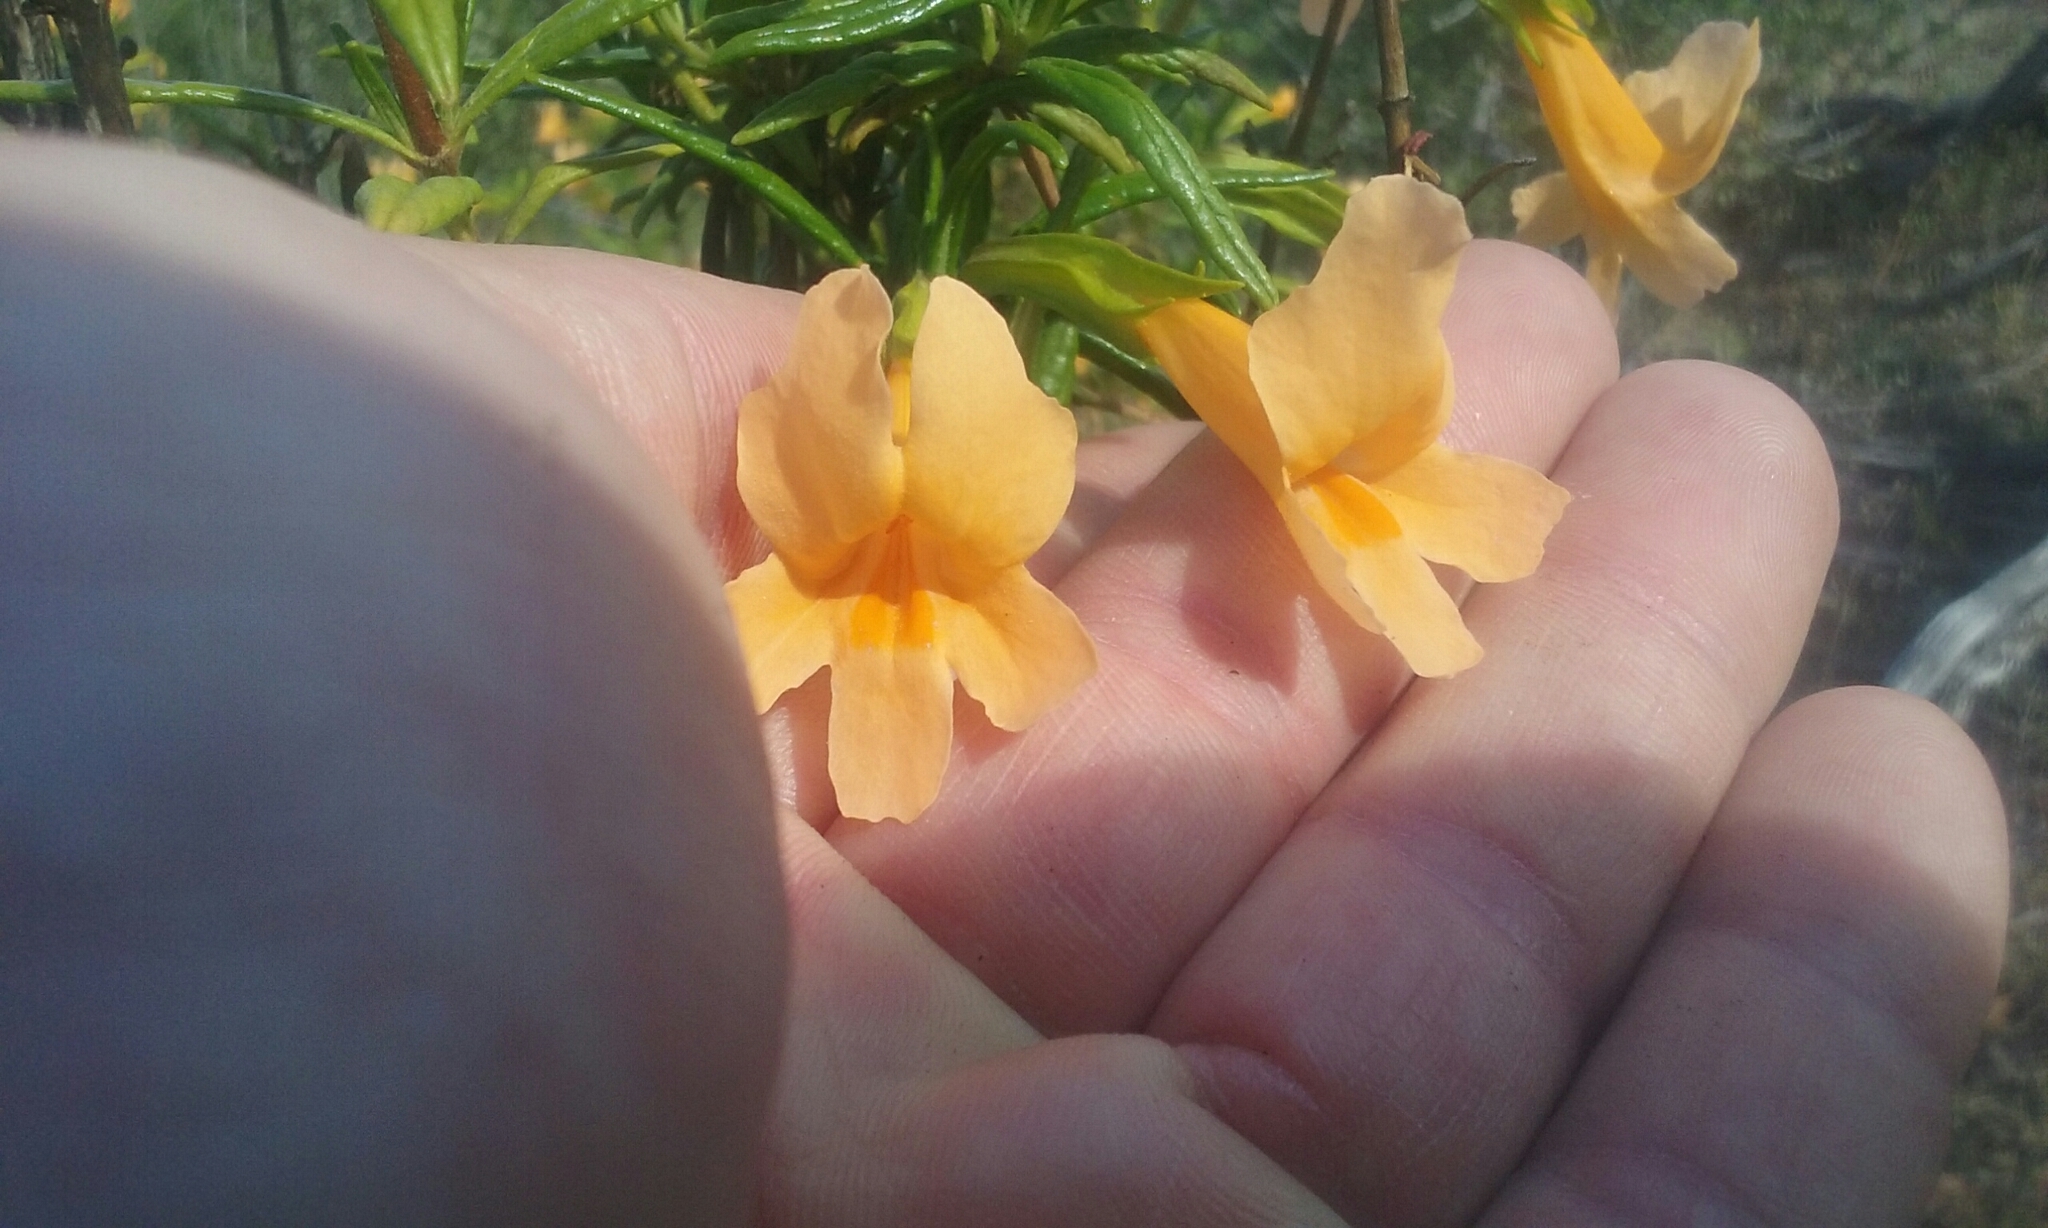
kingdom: Plantae
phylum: Tracheophyta
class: Magnoliopsida
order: Lamiales
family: Phrymaceae
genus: Diplacus
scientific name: Diplacus aurantiacus
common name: Bush monkey-flower
